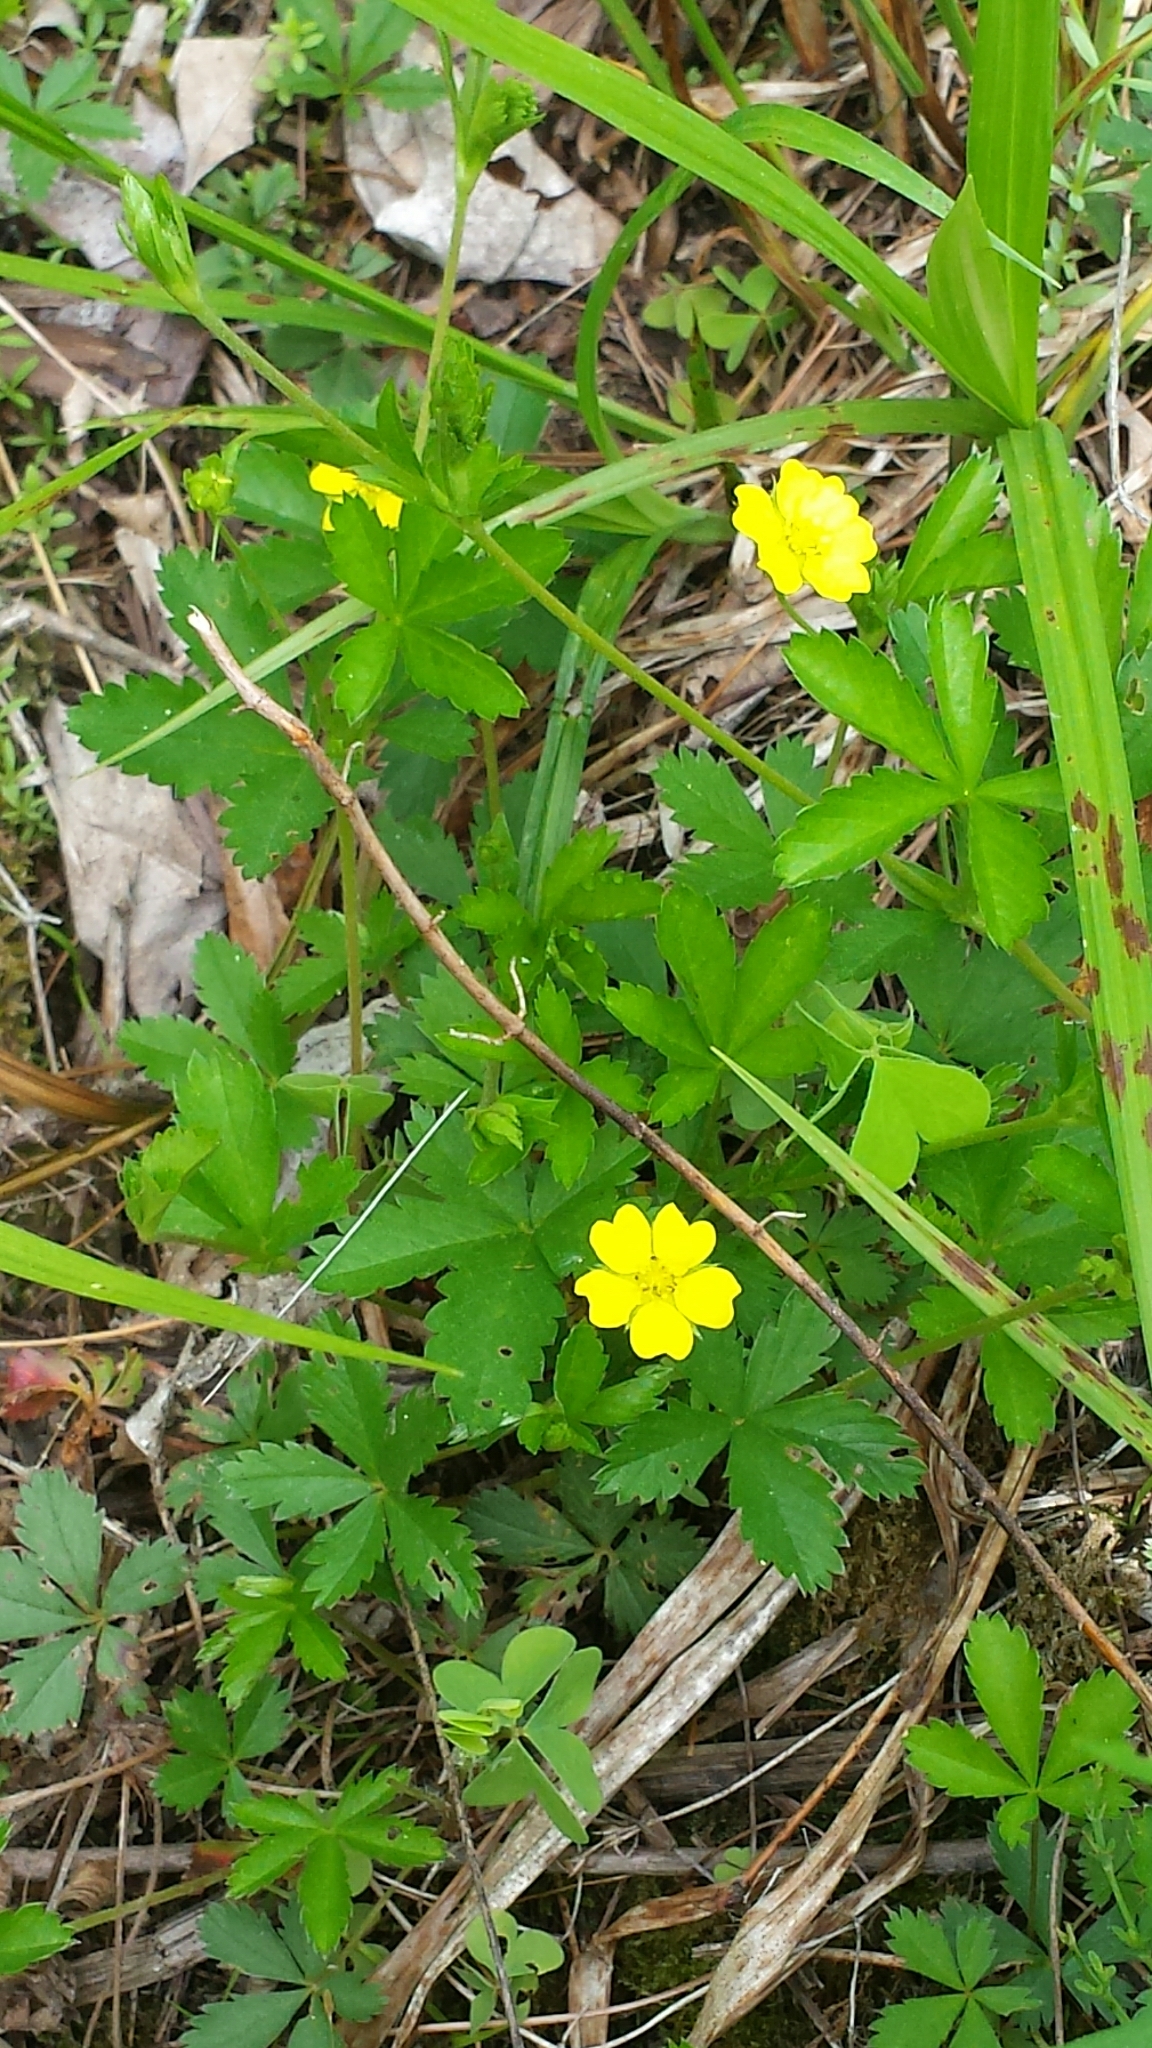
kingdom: Plantae
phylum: Tracheophyta
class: Magnoliopsida
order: Rosales
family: Rosaceae
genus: Potentilla
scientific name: Potentilla simplex
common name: Old field cinquefoil
